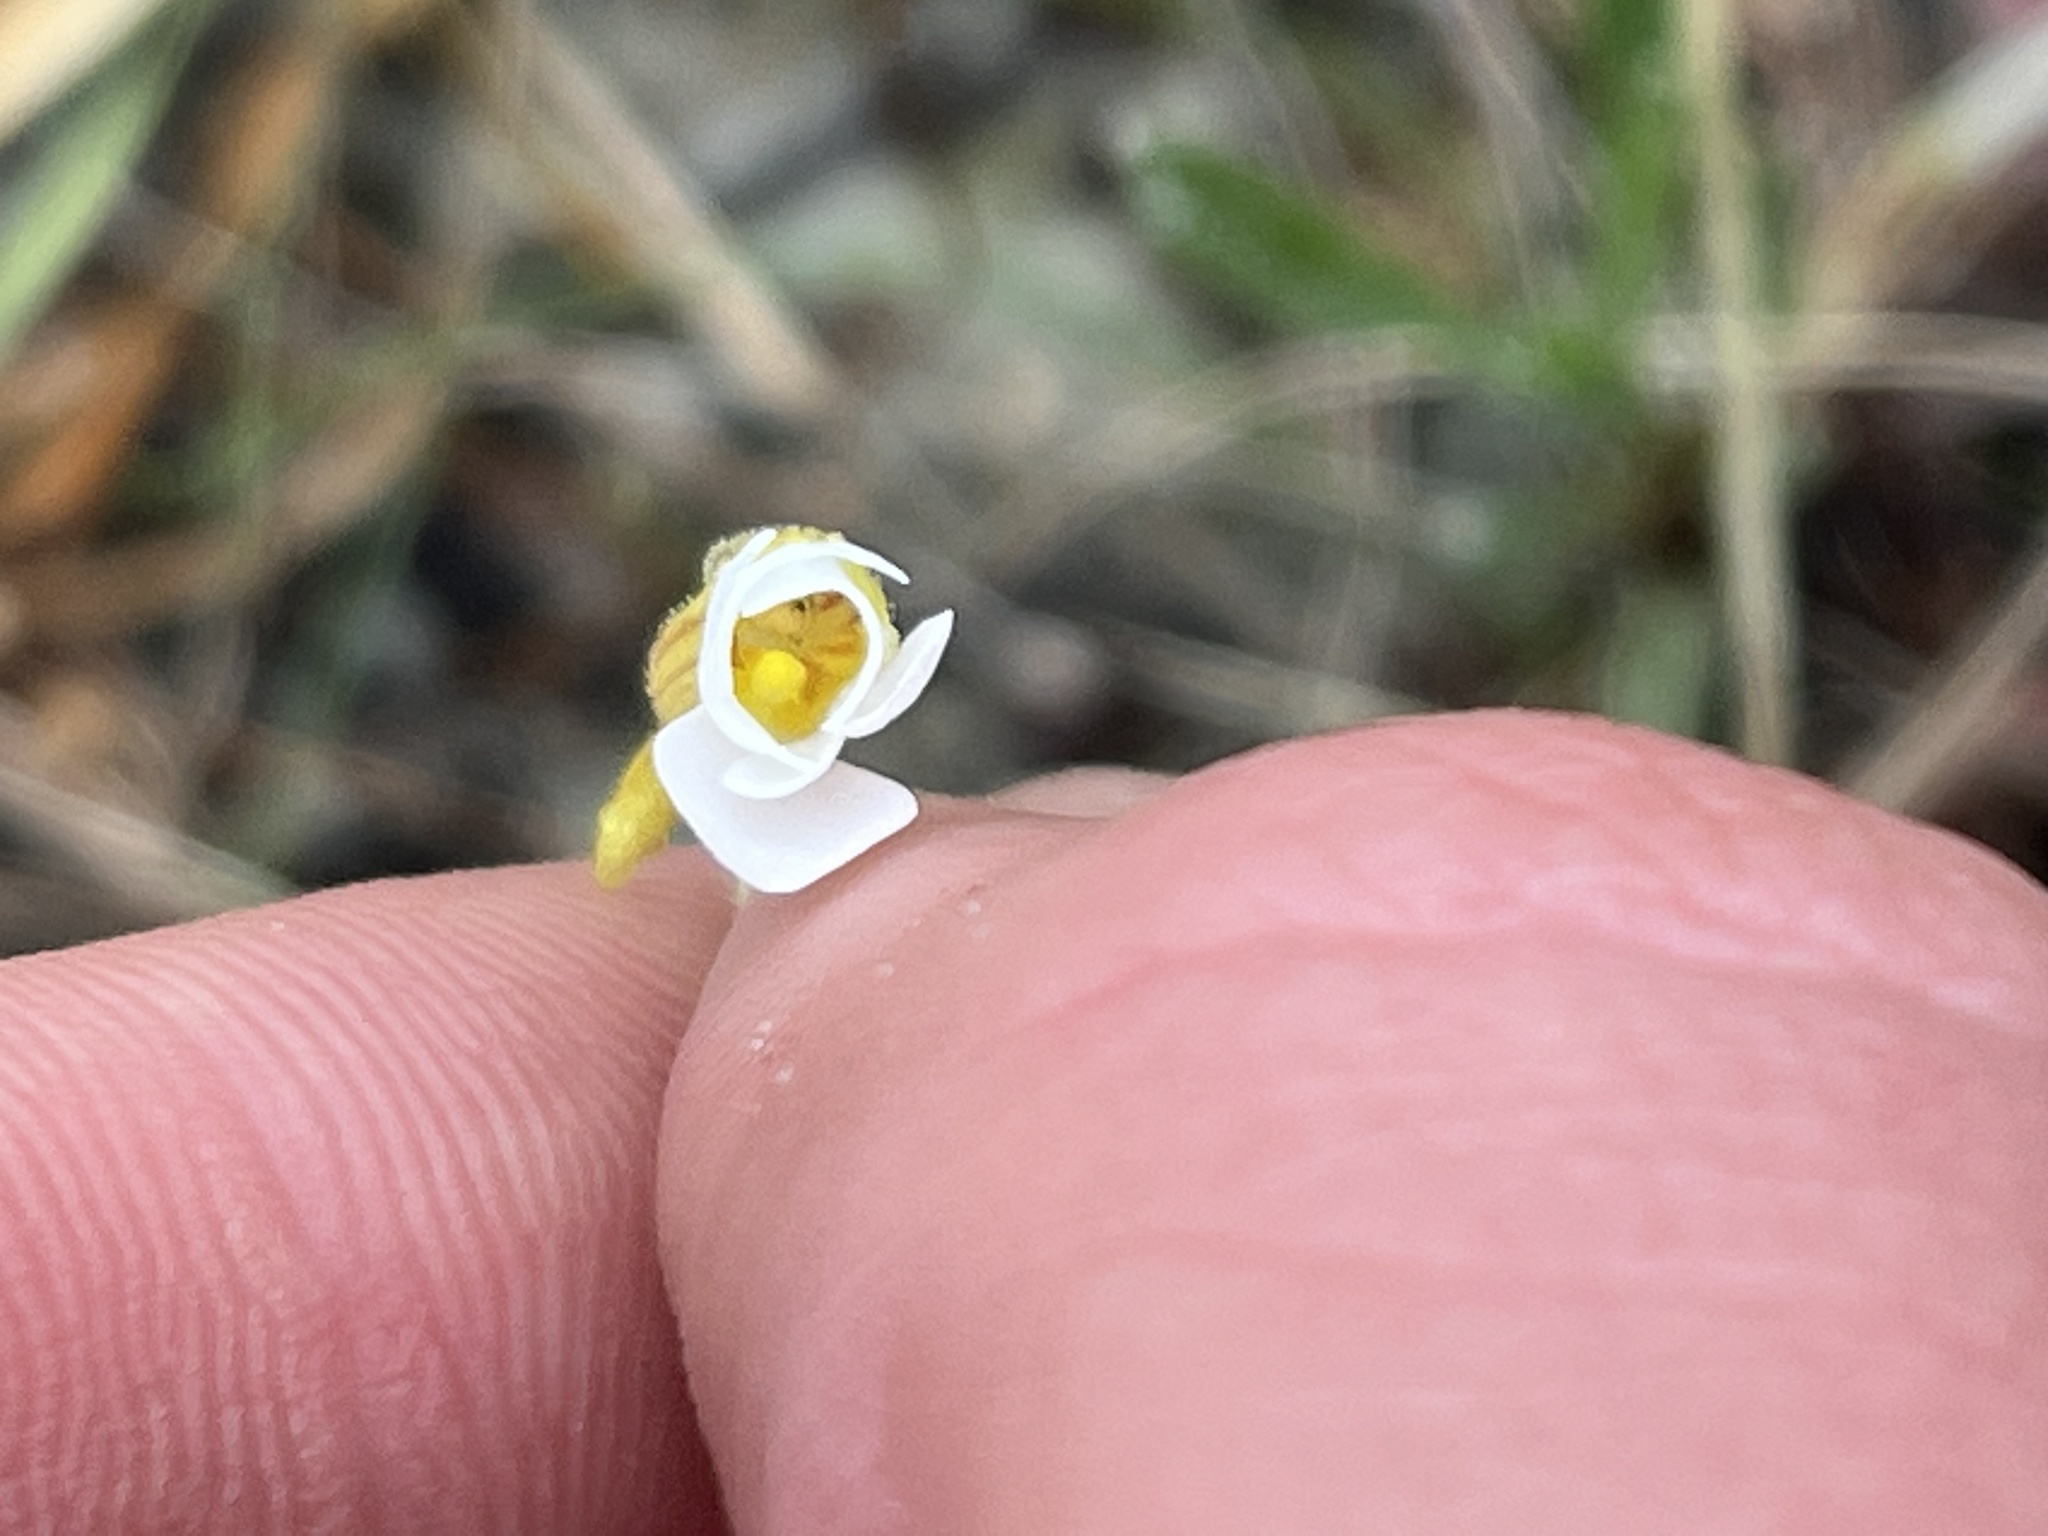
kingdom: Plantae
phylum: Tracheophyta
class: Magnoliopsida
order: Lamiales
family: Lentibulariaceae
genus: Pinguicula
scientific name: Pinguicula pumila
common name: Small butterwort
